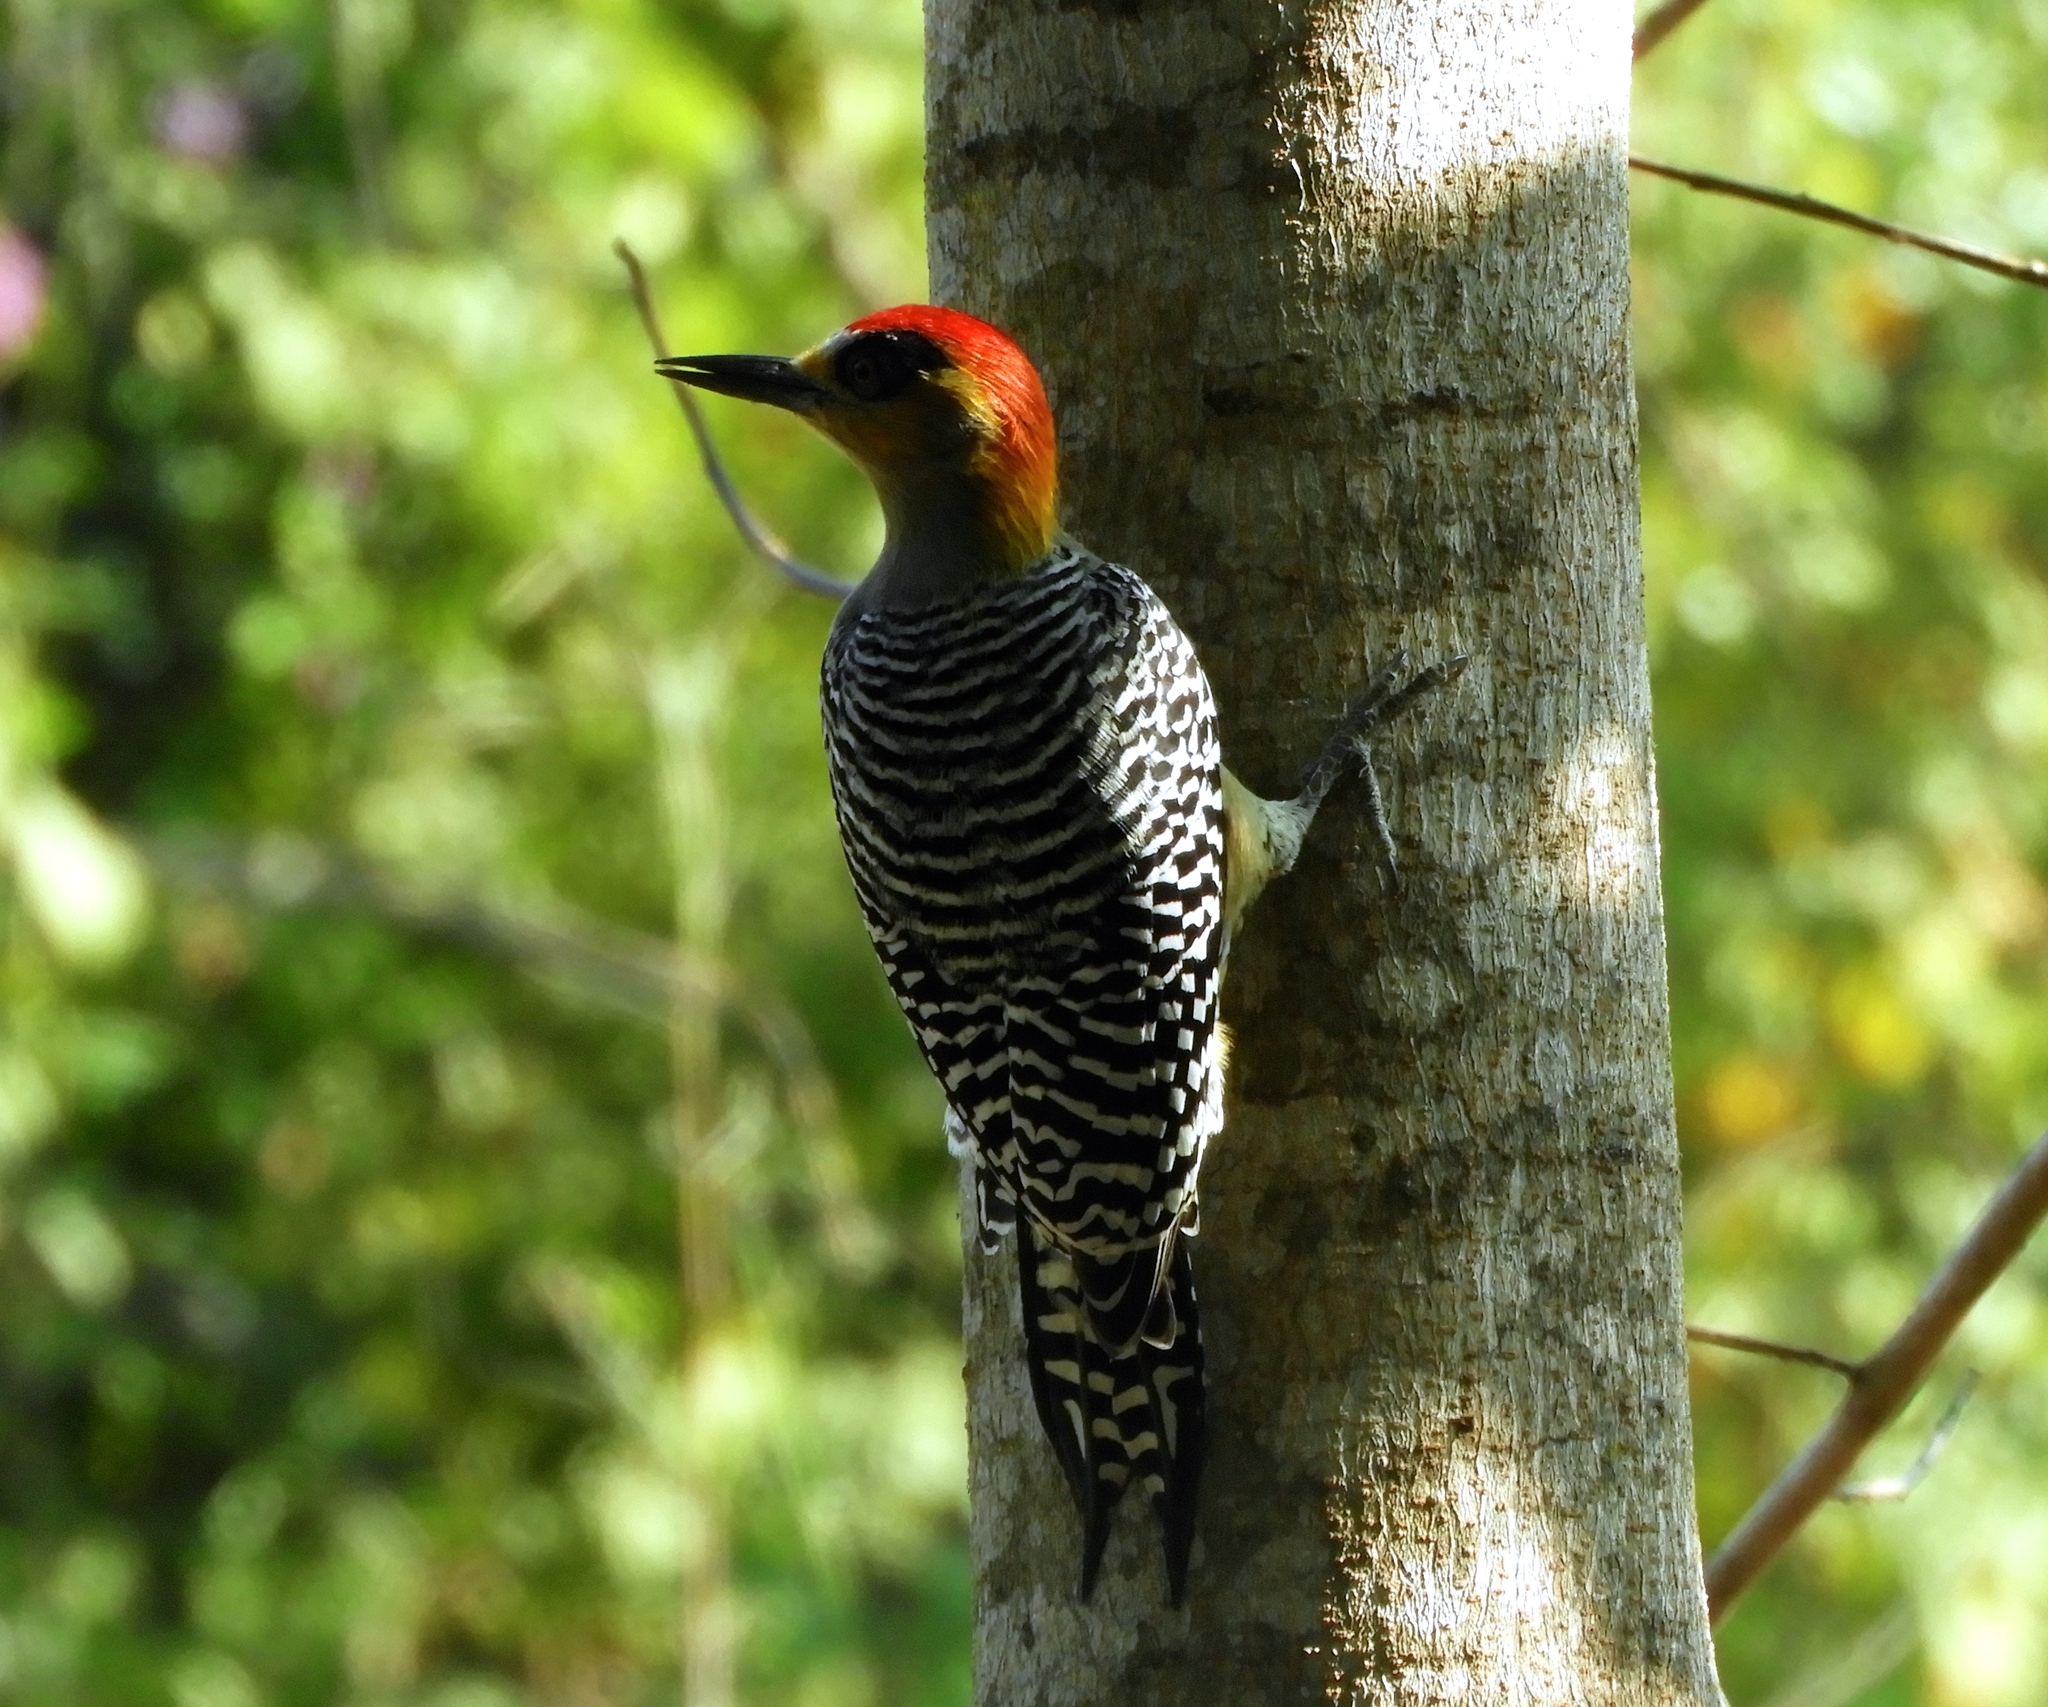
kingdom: Animalia
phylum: Chordata
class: Aves
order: Piciformes
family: Picidae
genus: Melanerpes
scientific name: Melanerpes chrysogenys
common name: Golden-cheeked woodpecker
